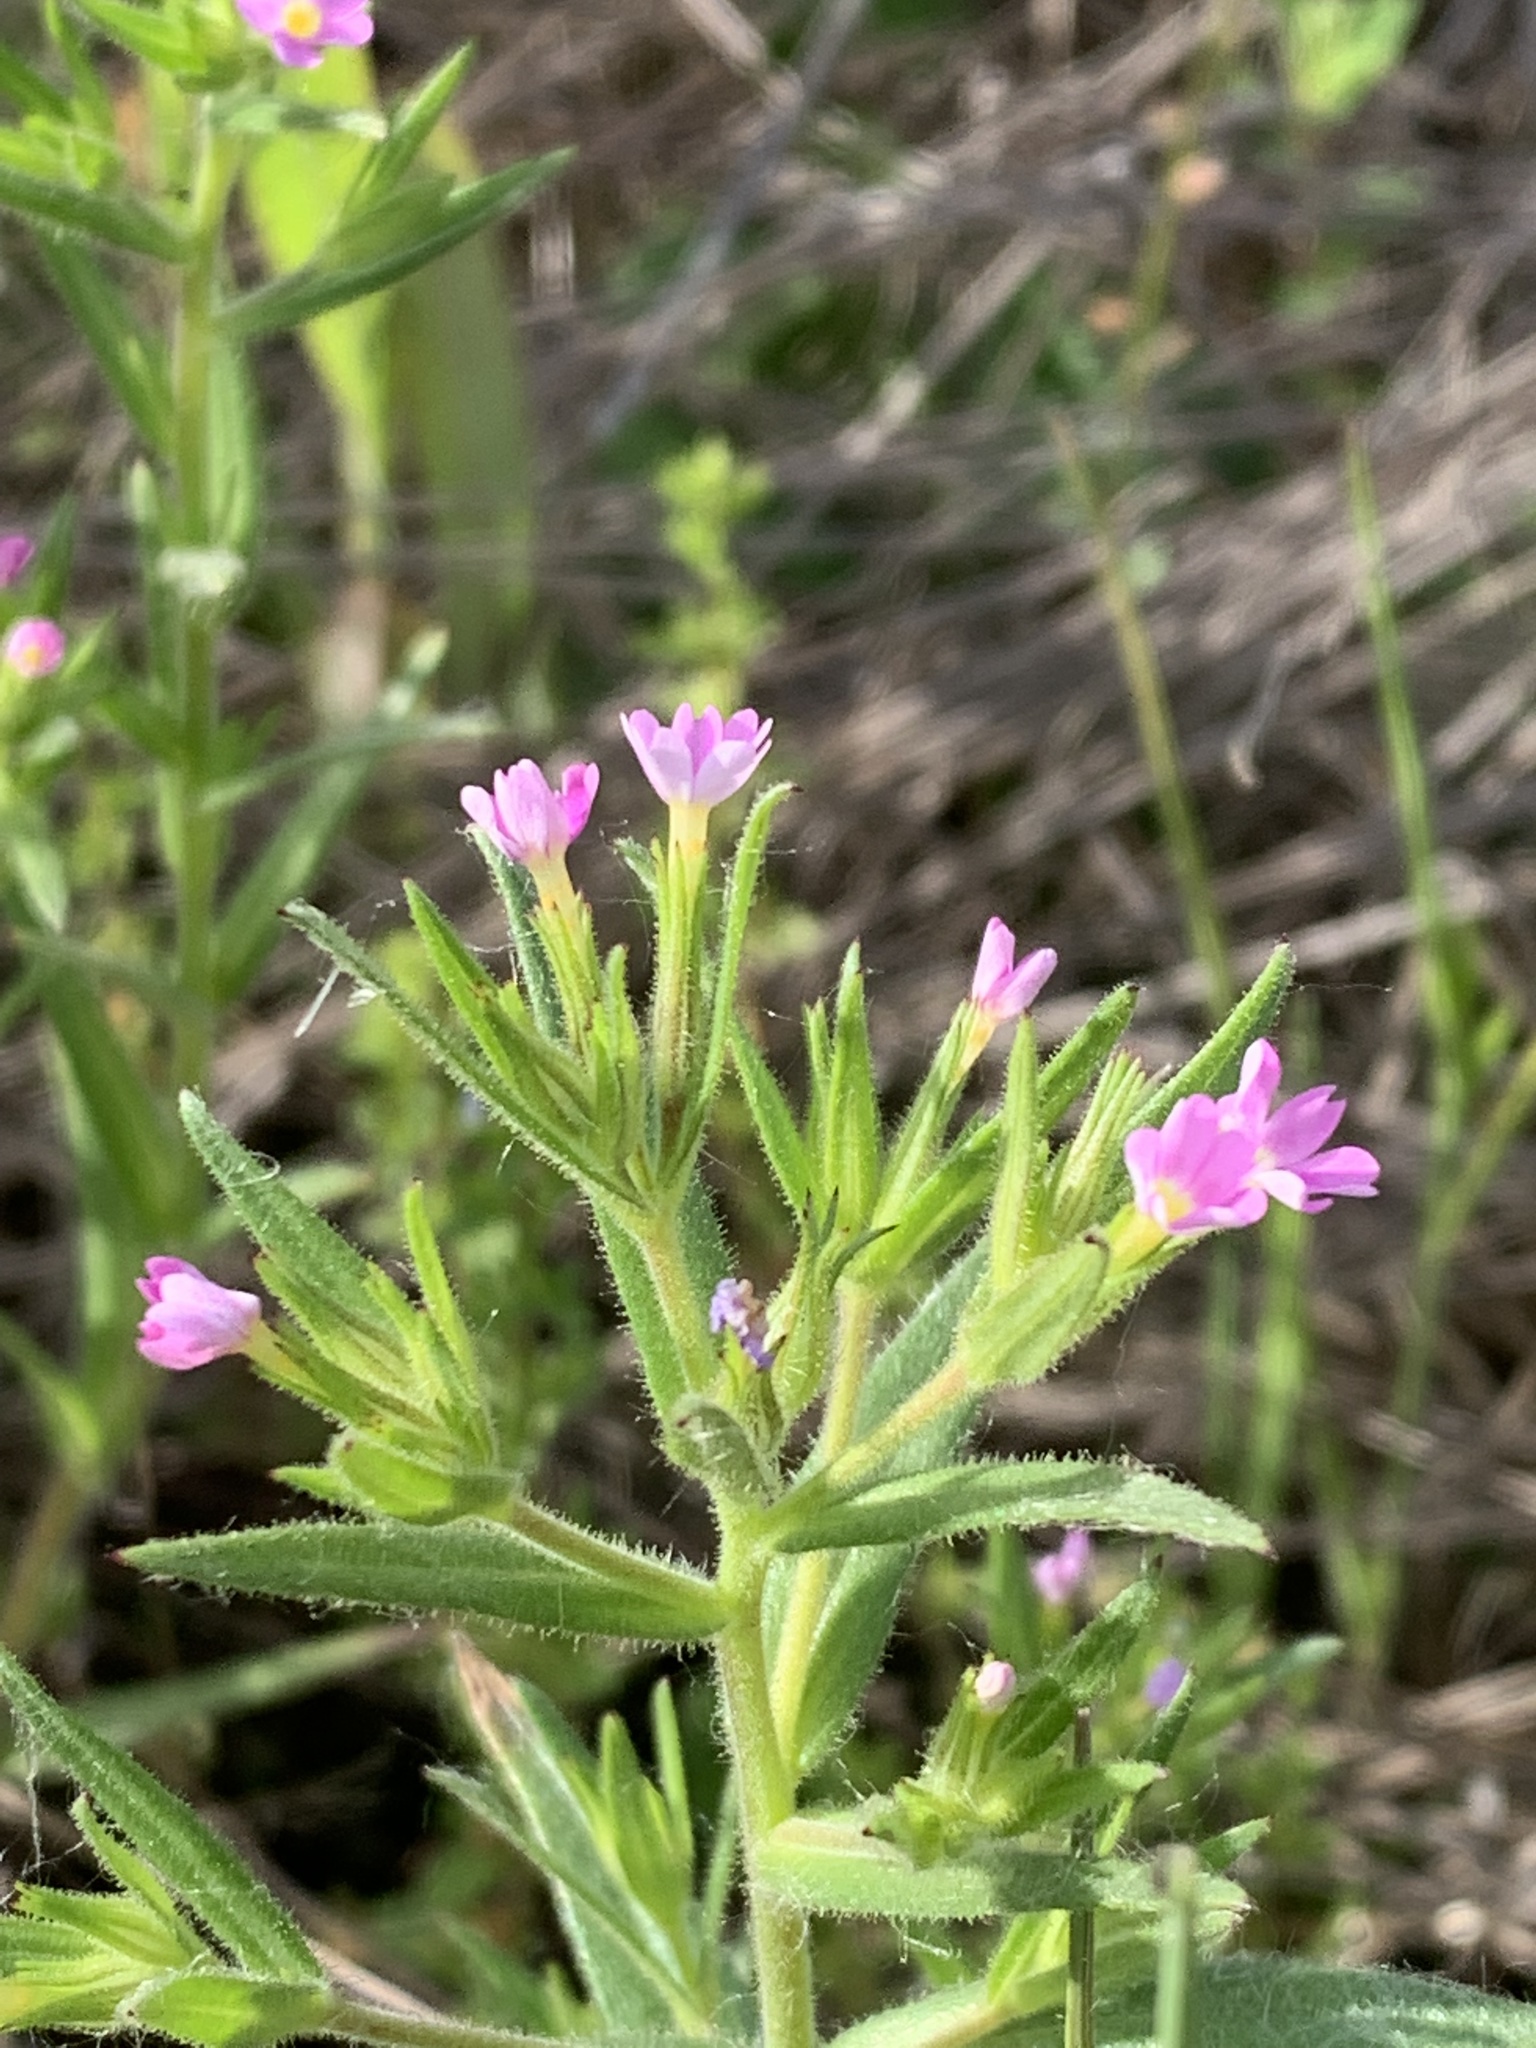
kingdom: Plantae
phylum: Tracheophyta
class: Magnoliopsida
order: Ericales
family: Polemoniaceae
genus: Phlox
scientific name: Phlox gracilis
